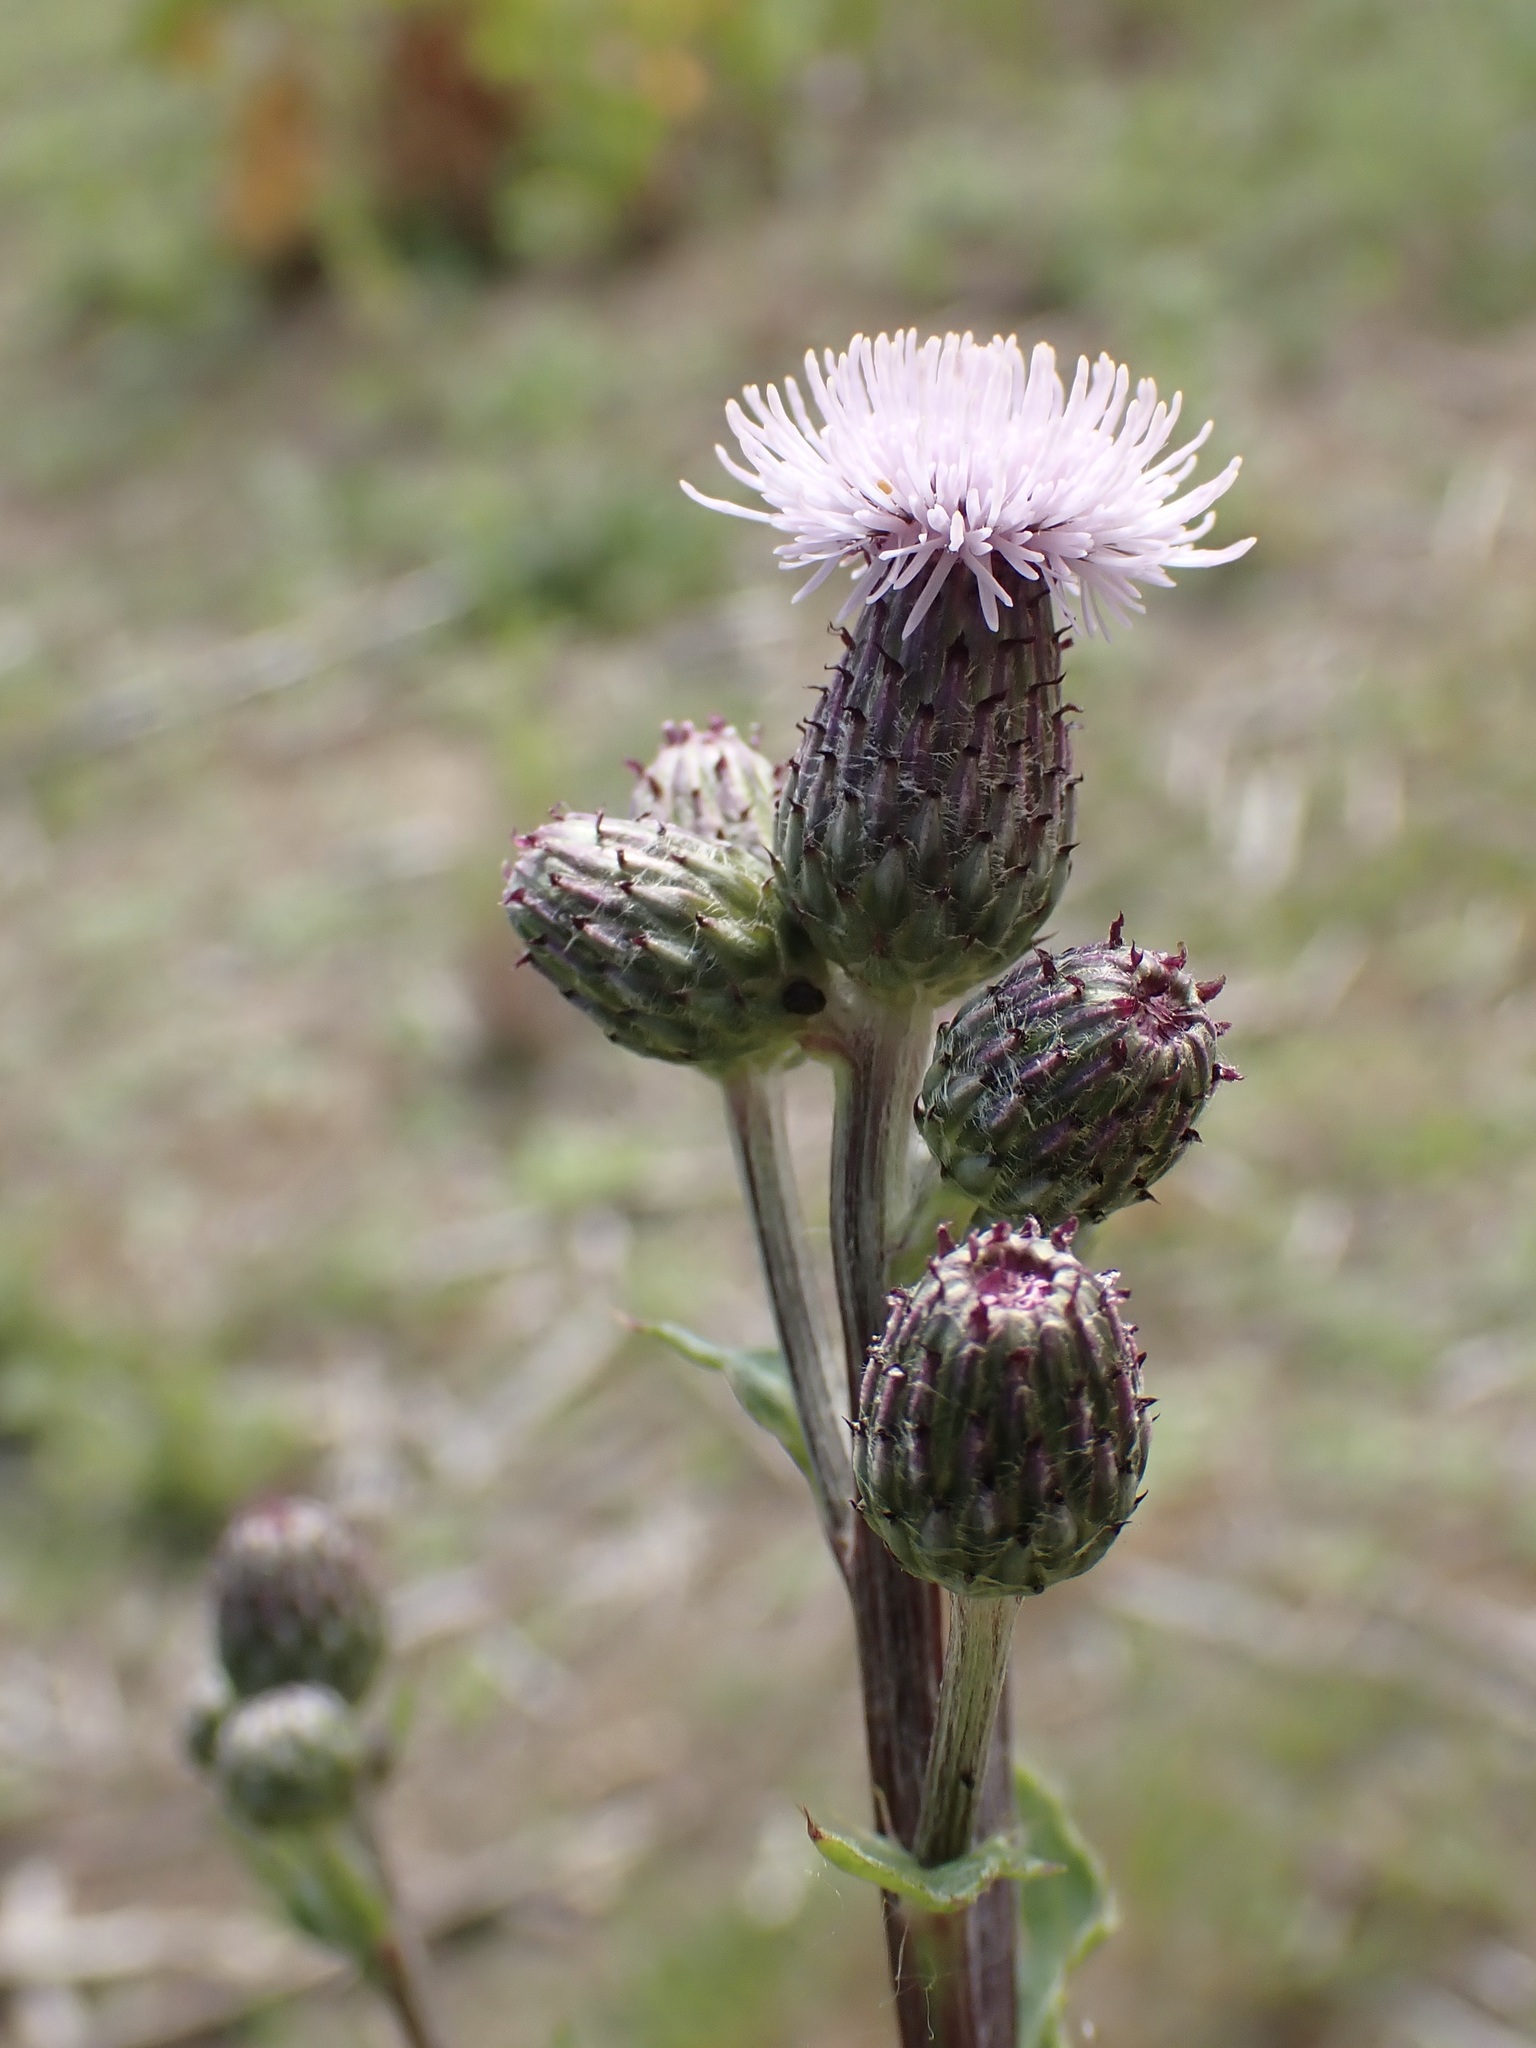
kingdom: Plantae
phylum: Tracheophyta
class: Magnoliopsida
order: Asterales
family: Asteraceae
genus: Cirsium
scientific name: Cirsium arvense
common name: Creeping thistle
